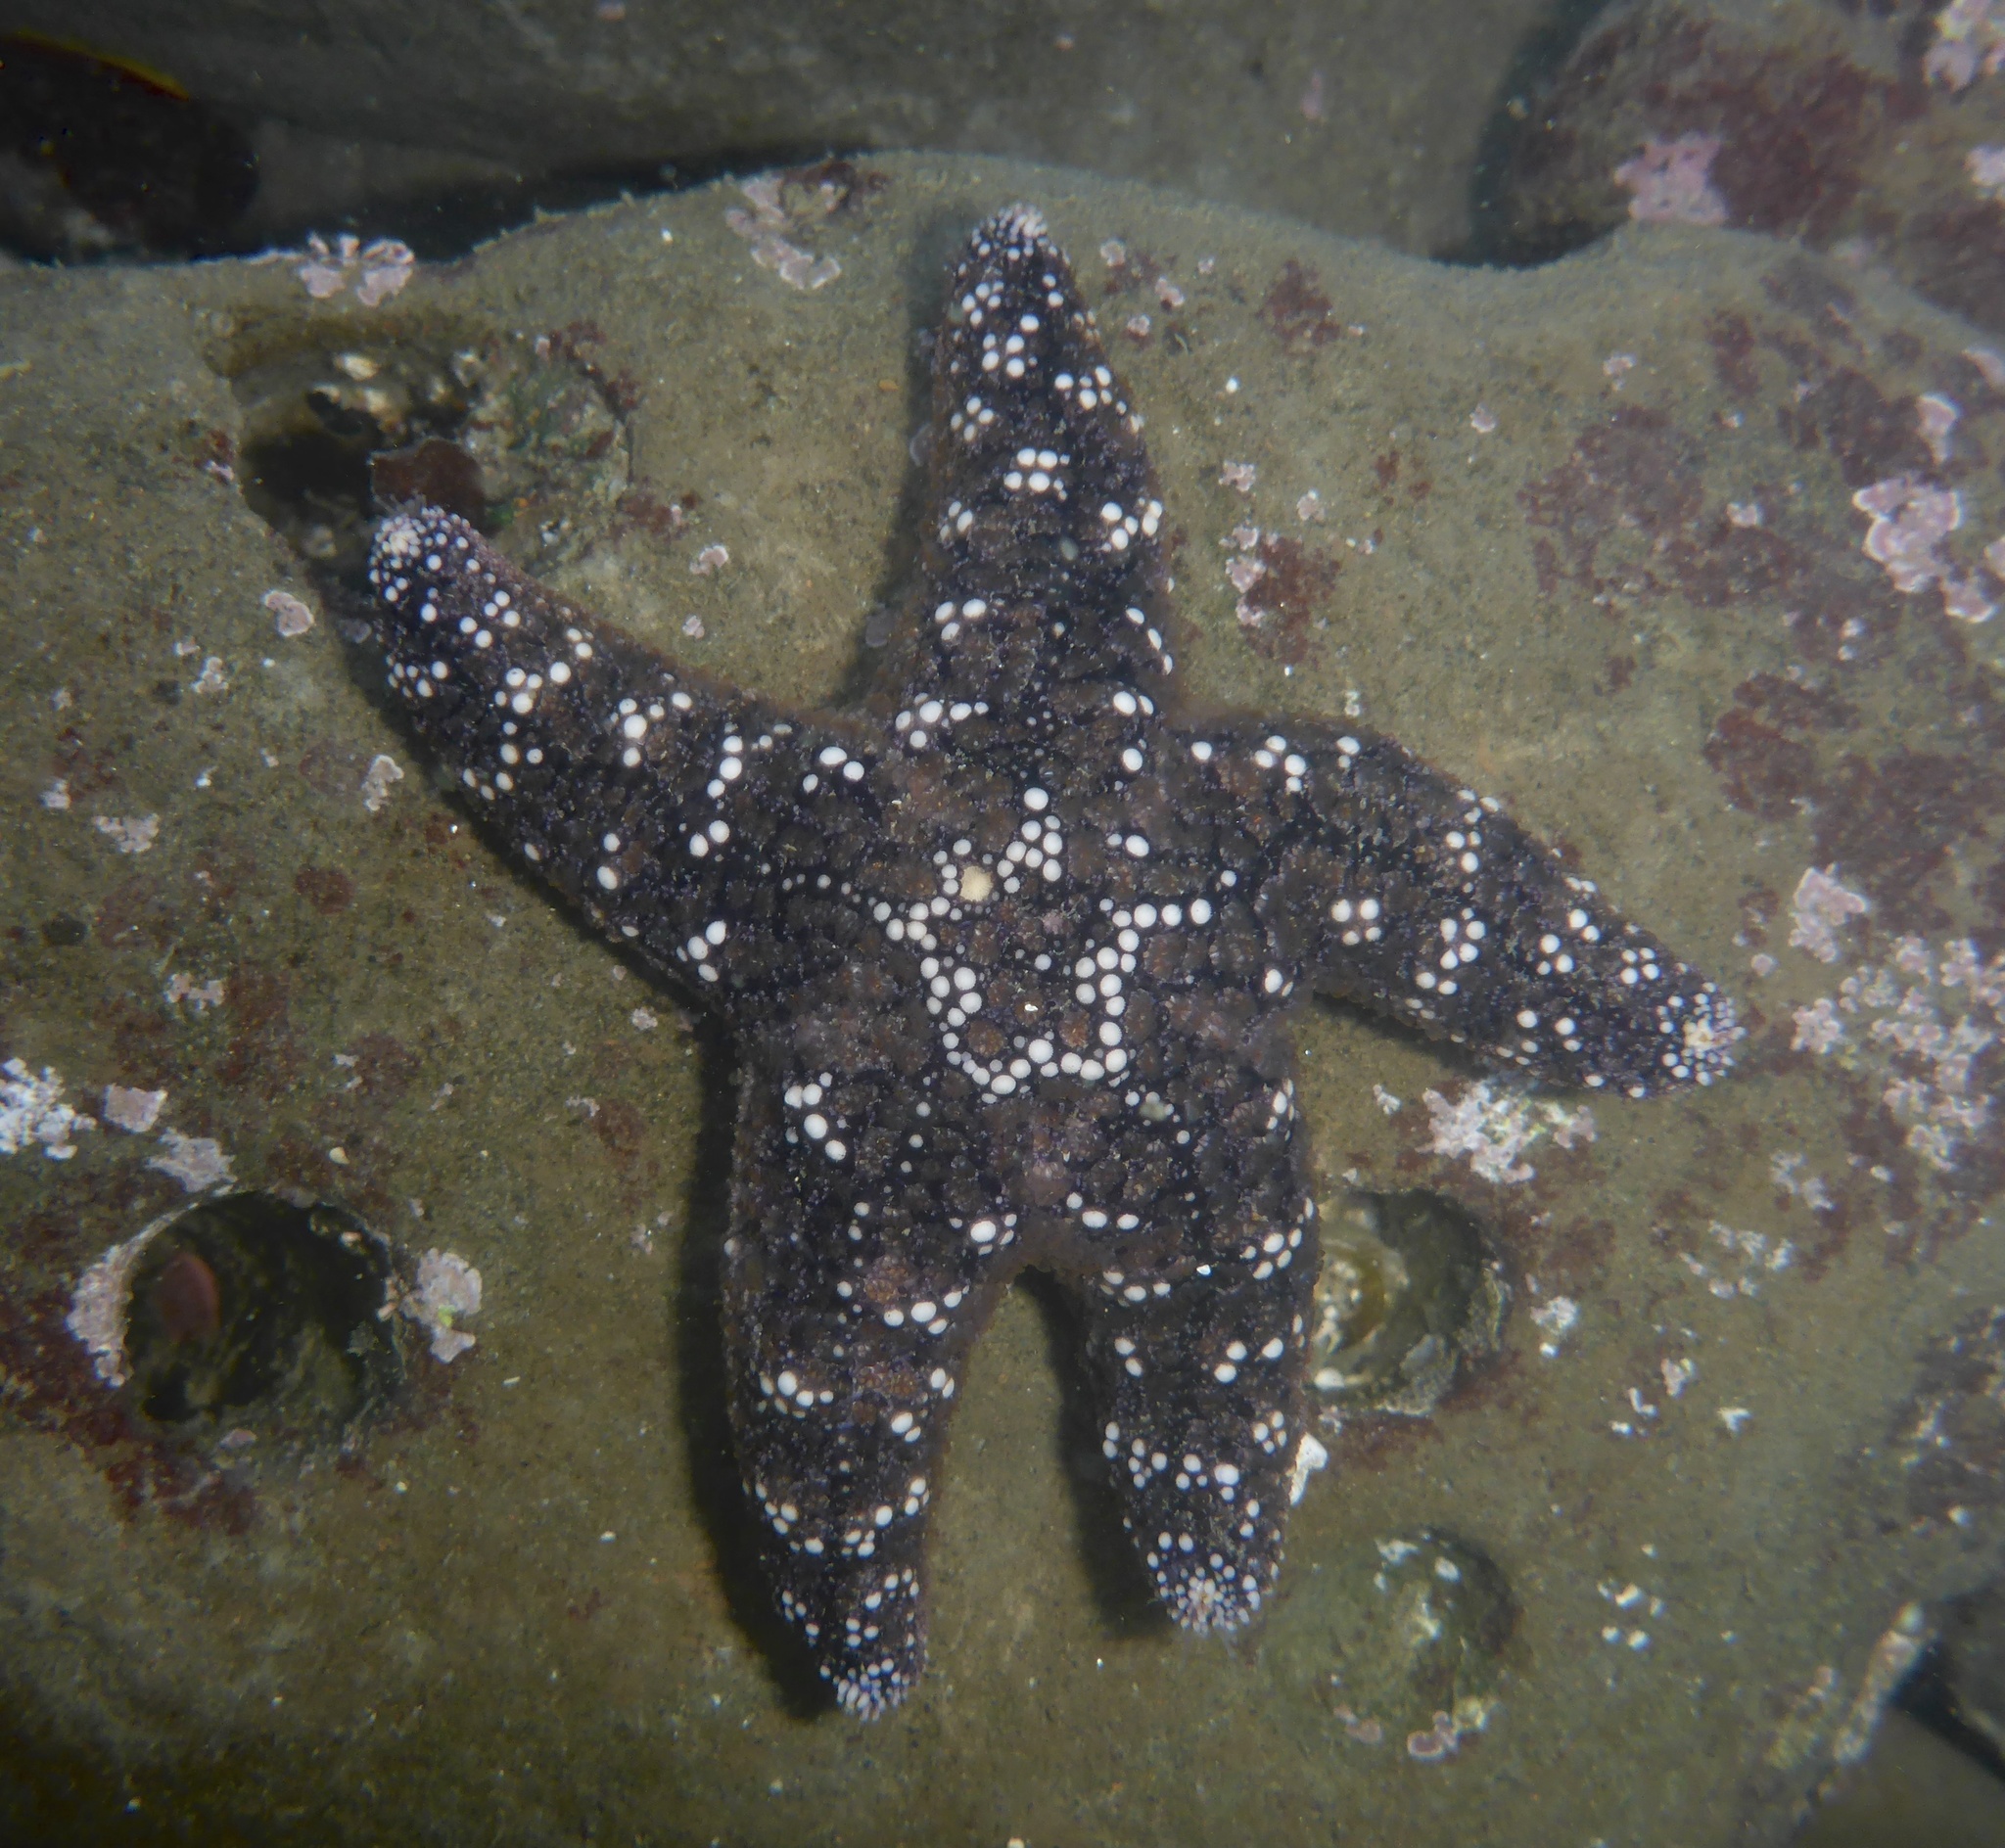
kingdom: Animalia
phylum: Echinodermata
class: Asteroidea
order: Forcipulatida
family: Asteriidae
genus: Pisaster
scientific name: Pisaster ochraceus
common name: Ochre stars
